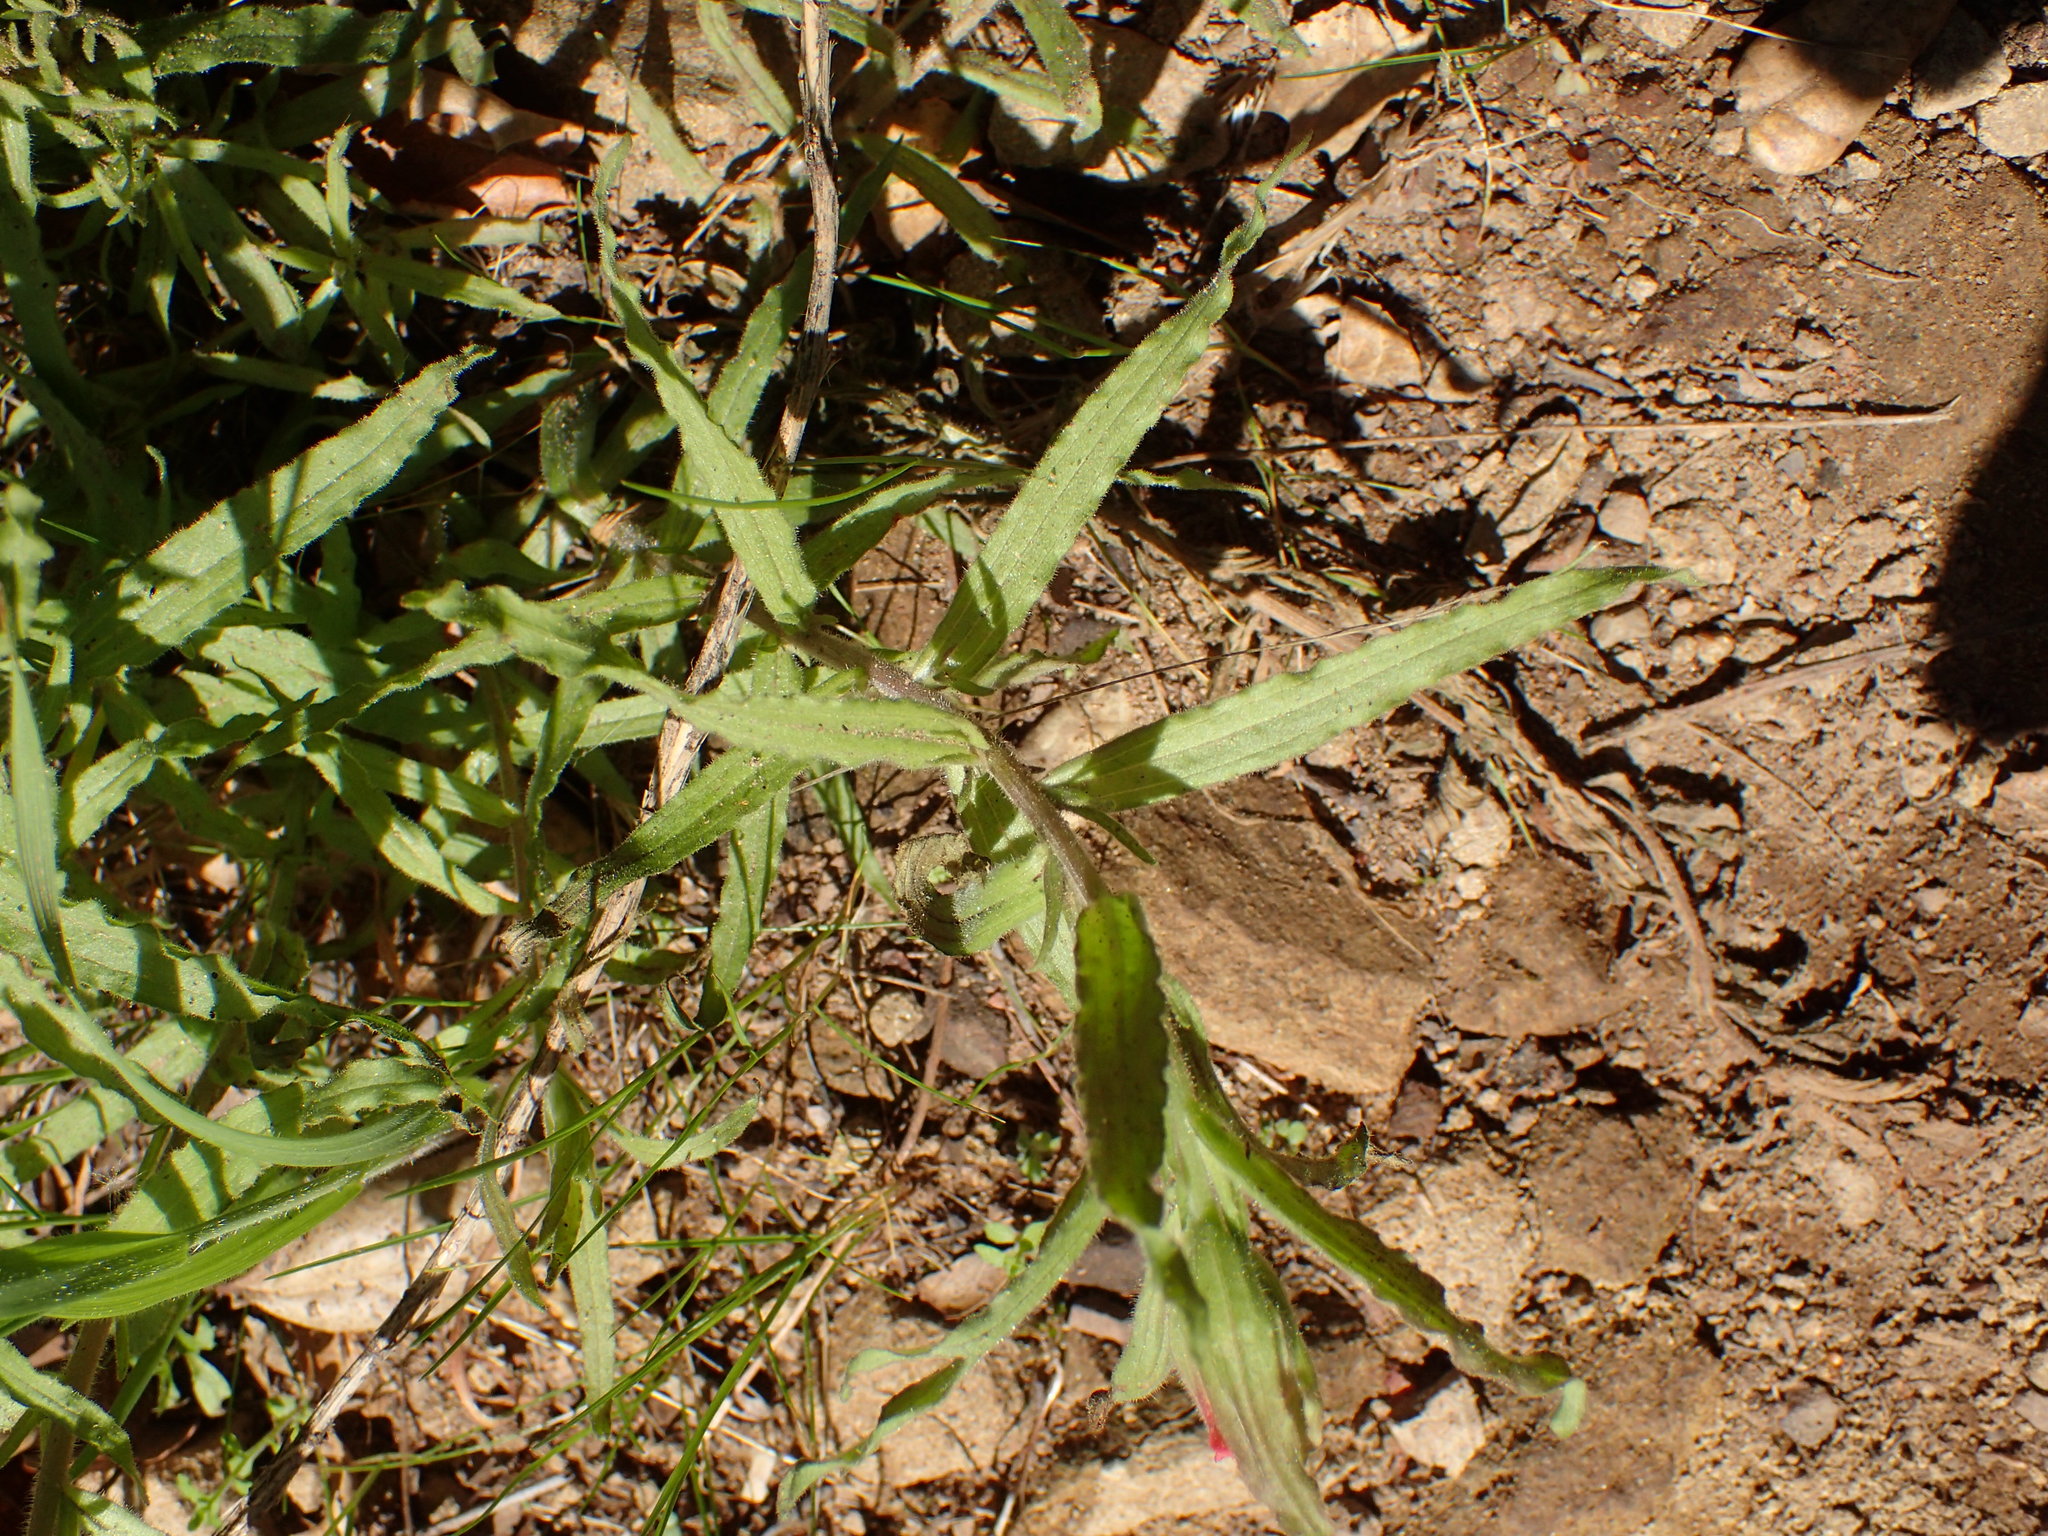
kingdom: Plantae
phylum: Tracheophyta
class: Magnoliopsida
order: Lamiales
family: Orobanchaceae
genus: Castilleja
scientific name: Castilleja affinis
